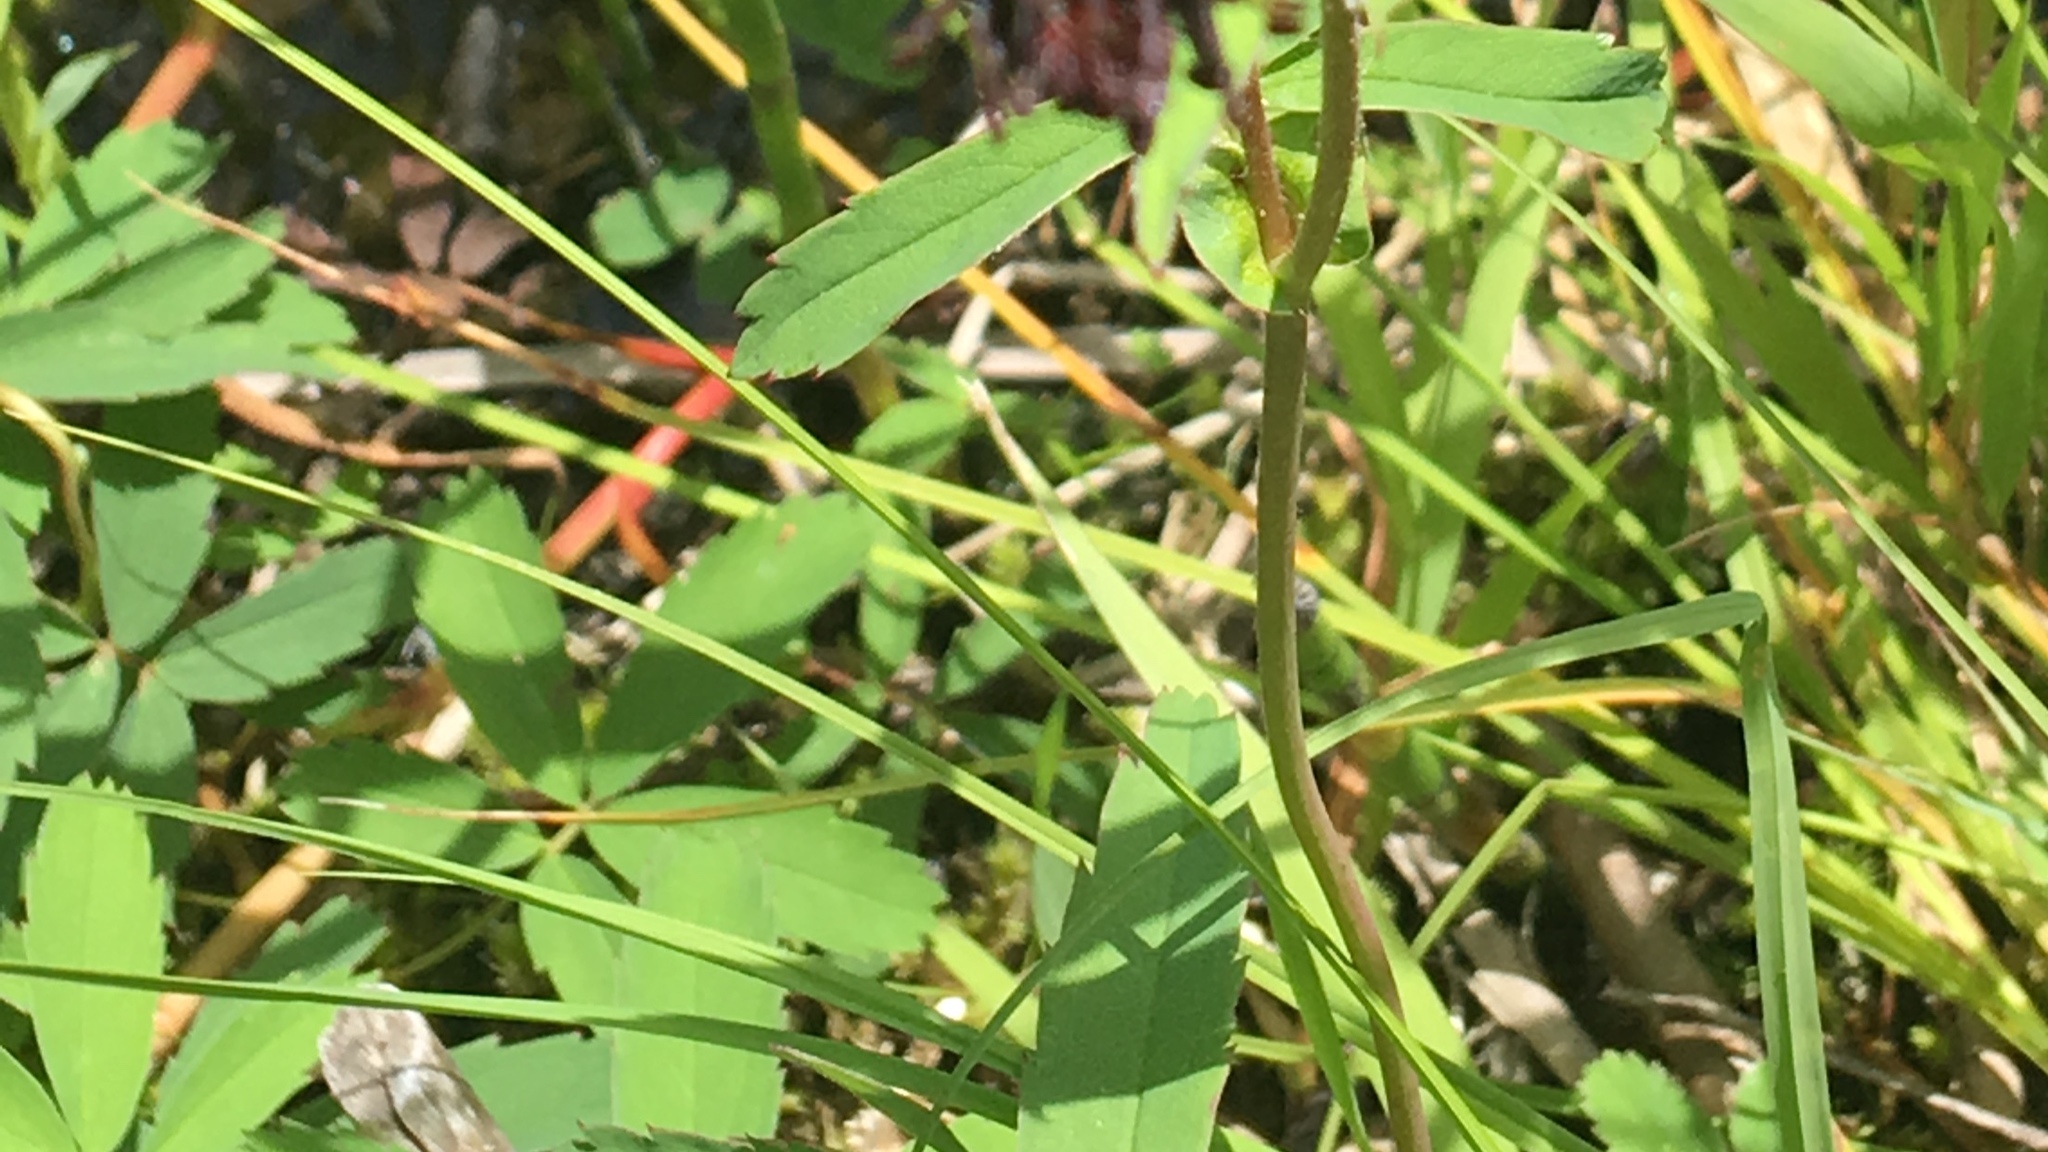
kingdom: Plantae
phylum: Tracheophyta
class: Magnoliopsida
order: Rosales
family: Rosaceae
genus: Comarum
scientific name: Comarum palustre
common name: Marsh cinquefoil
